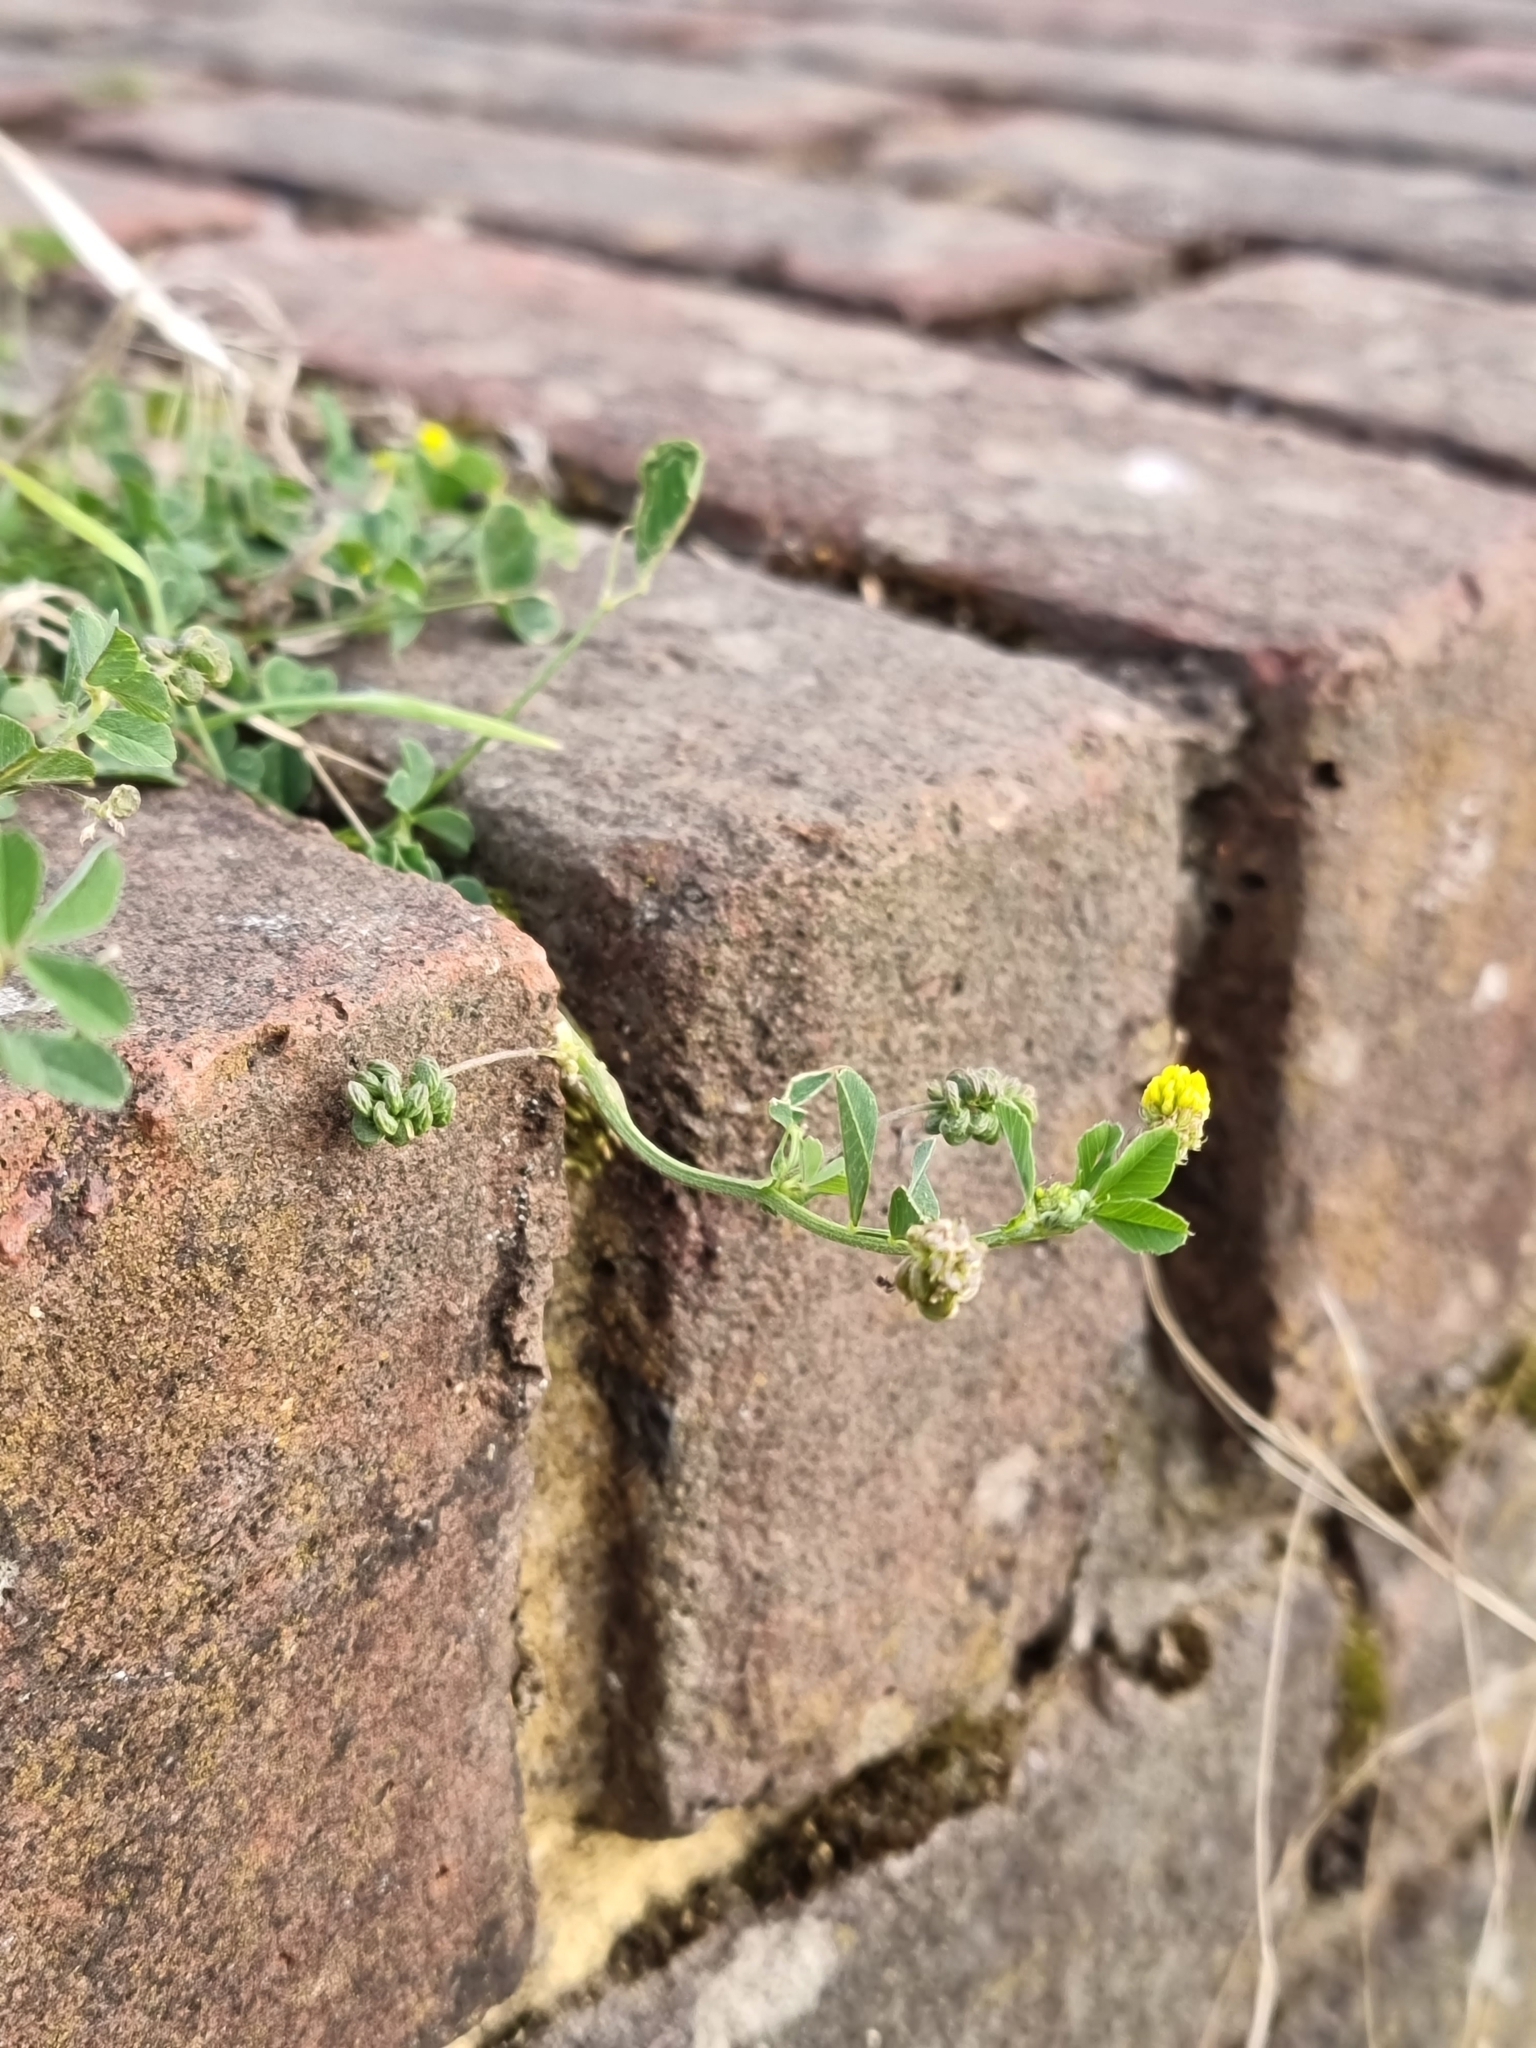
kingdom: Plantae
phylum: Tracheophyta
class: Magnoliopsida
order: Fabales
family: Fabaceae
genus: Medicago
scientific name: Medicago lupulina
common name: Black medick
